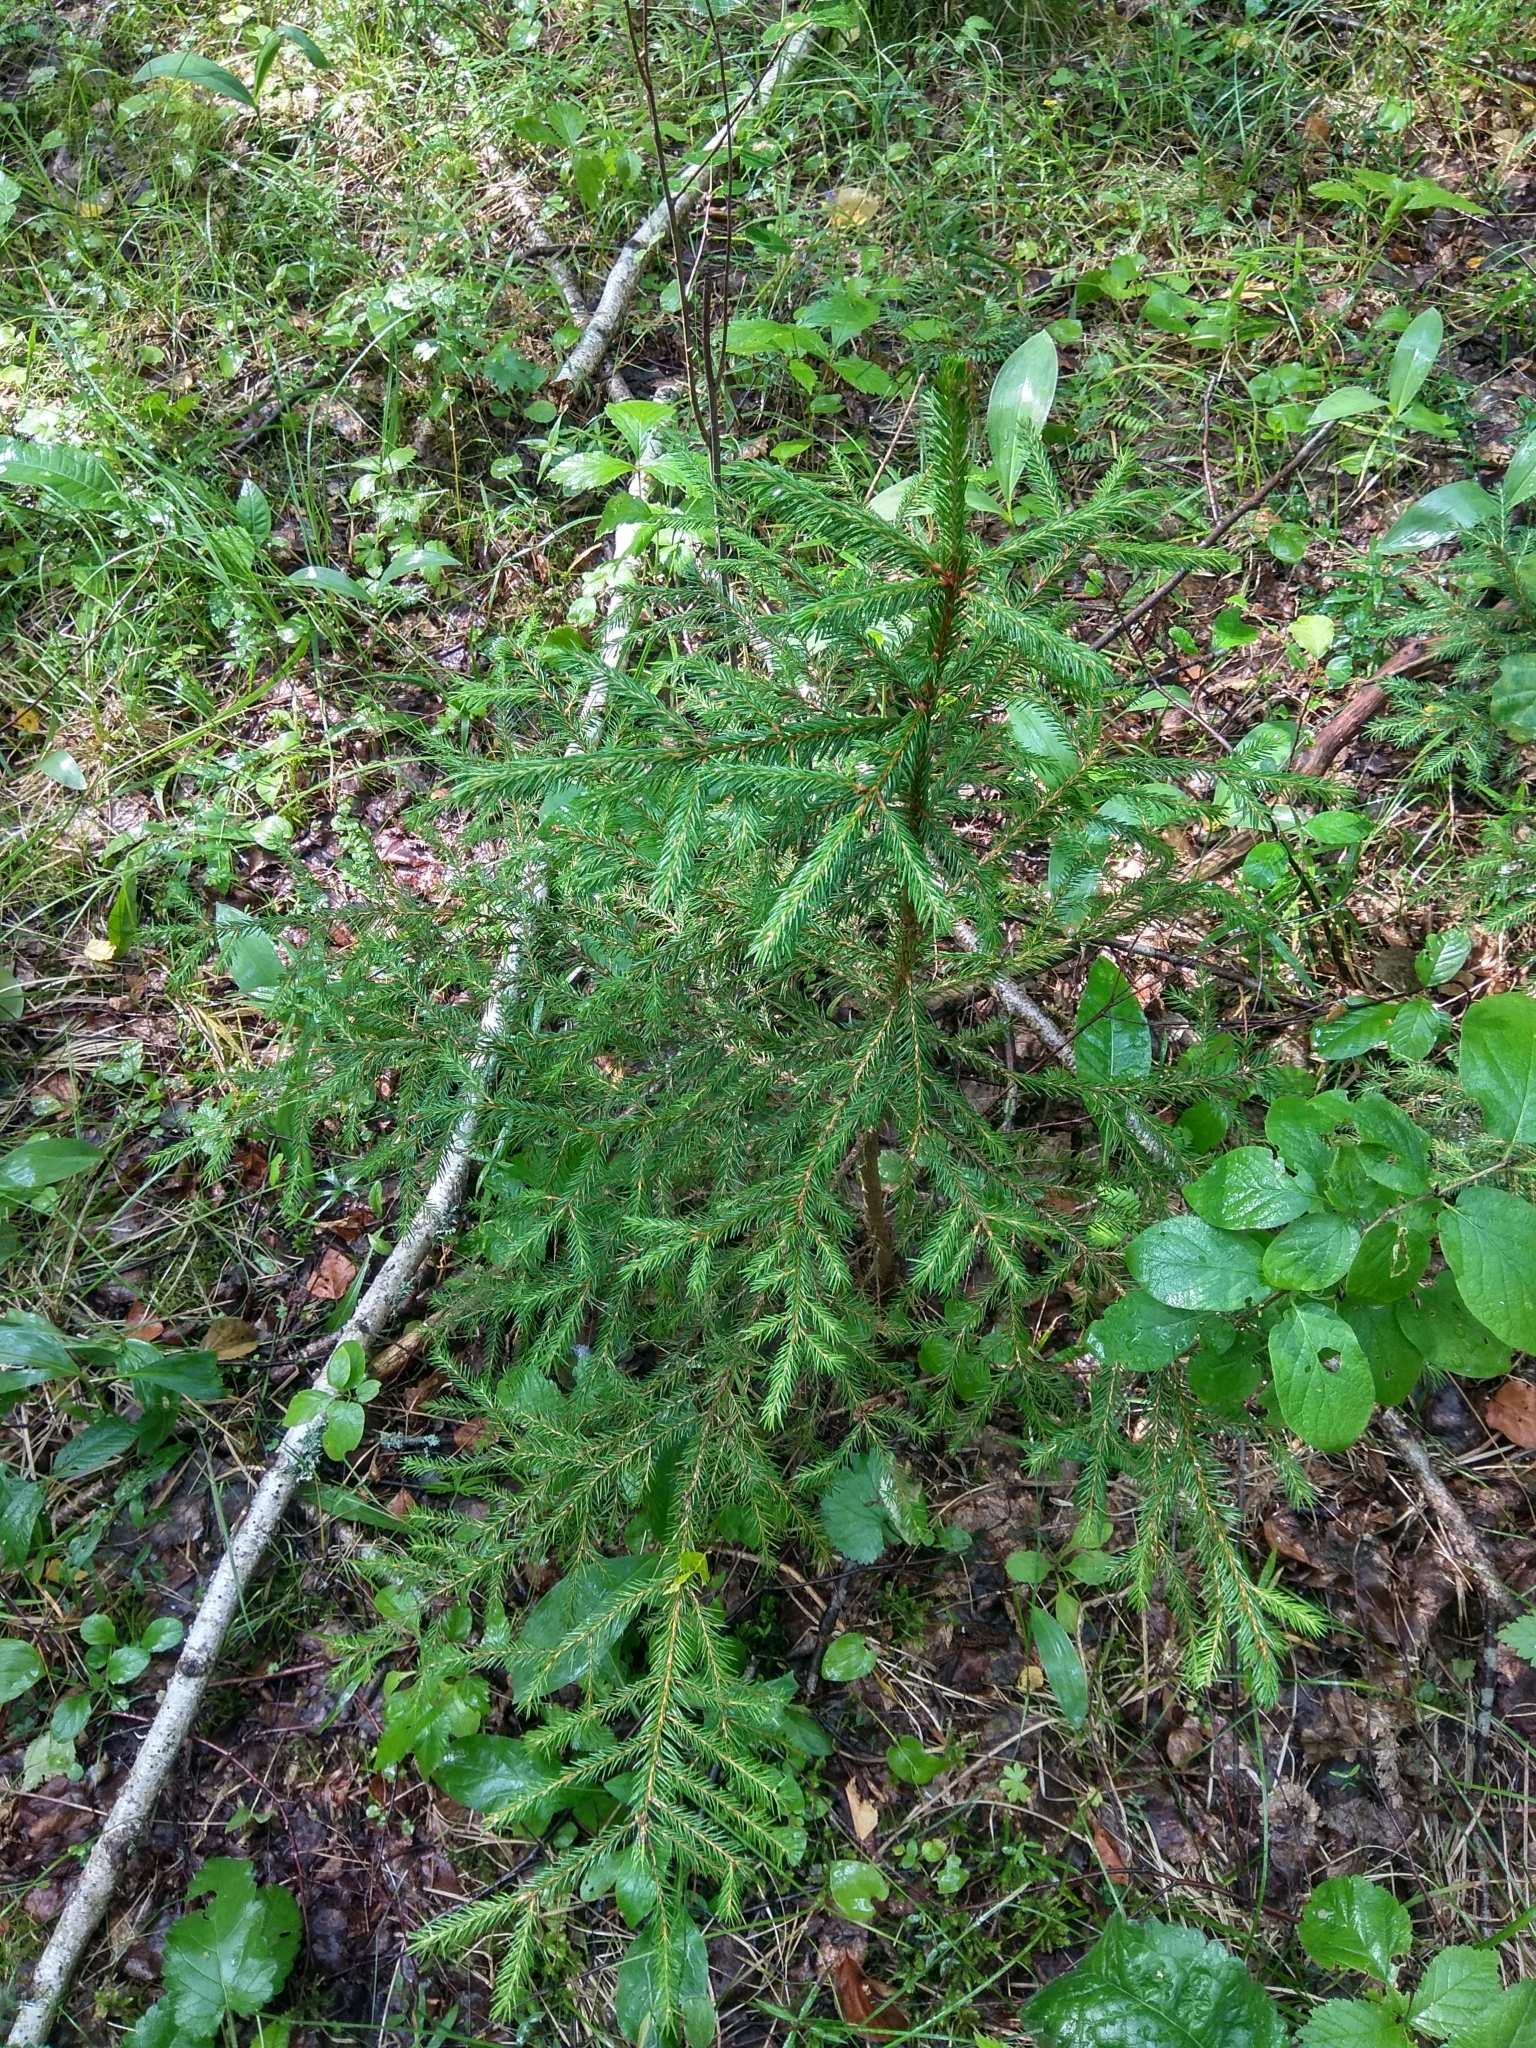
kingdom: Plantae
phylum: Tracheophyta
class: Pinopsida
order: Pinales
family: Pinaceae
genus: Picea
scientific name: Picea abies
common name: Norway spruce
